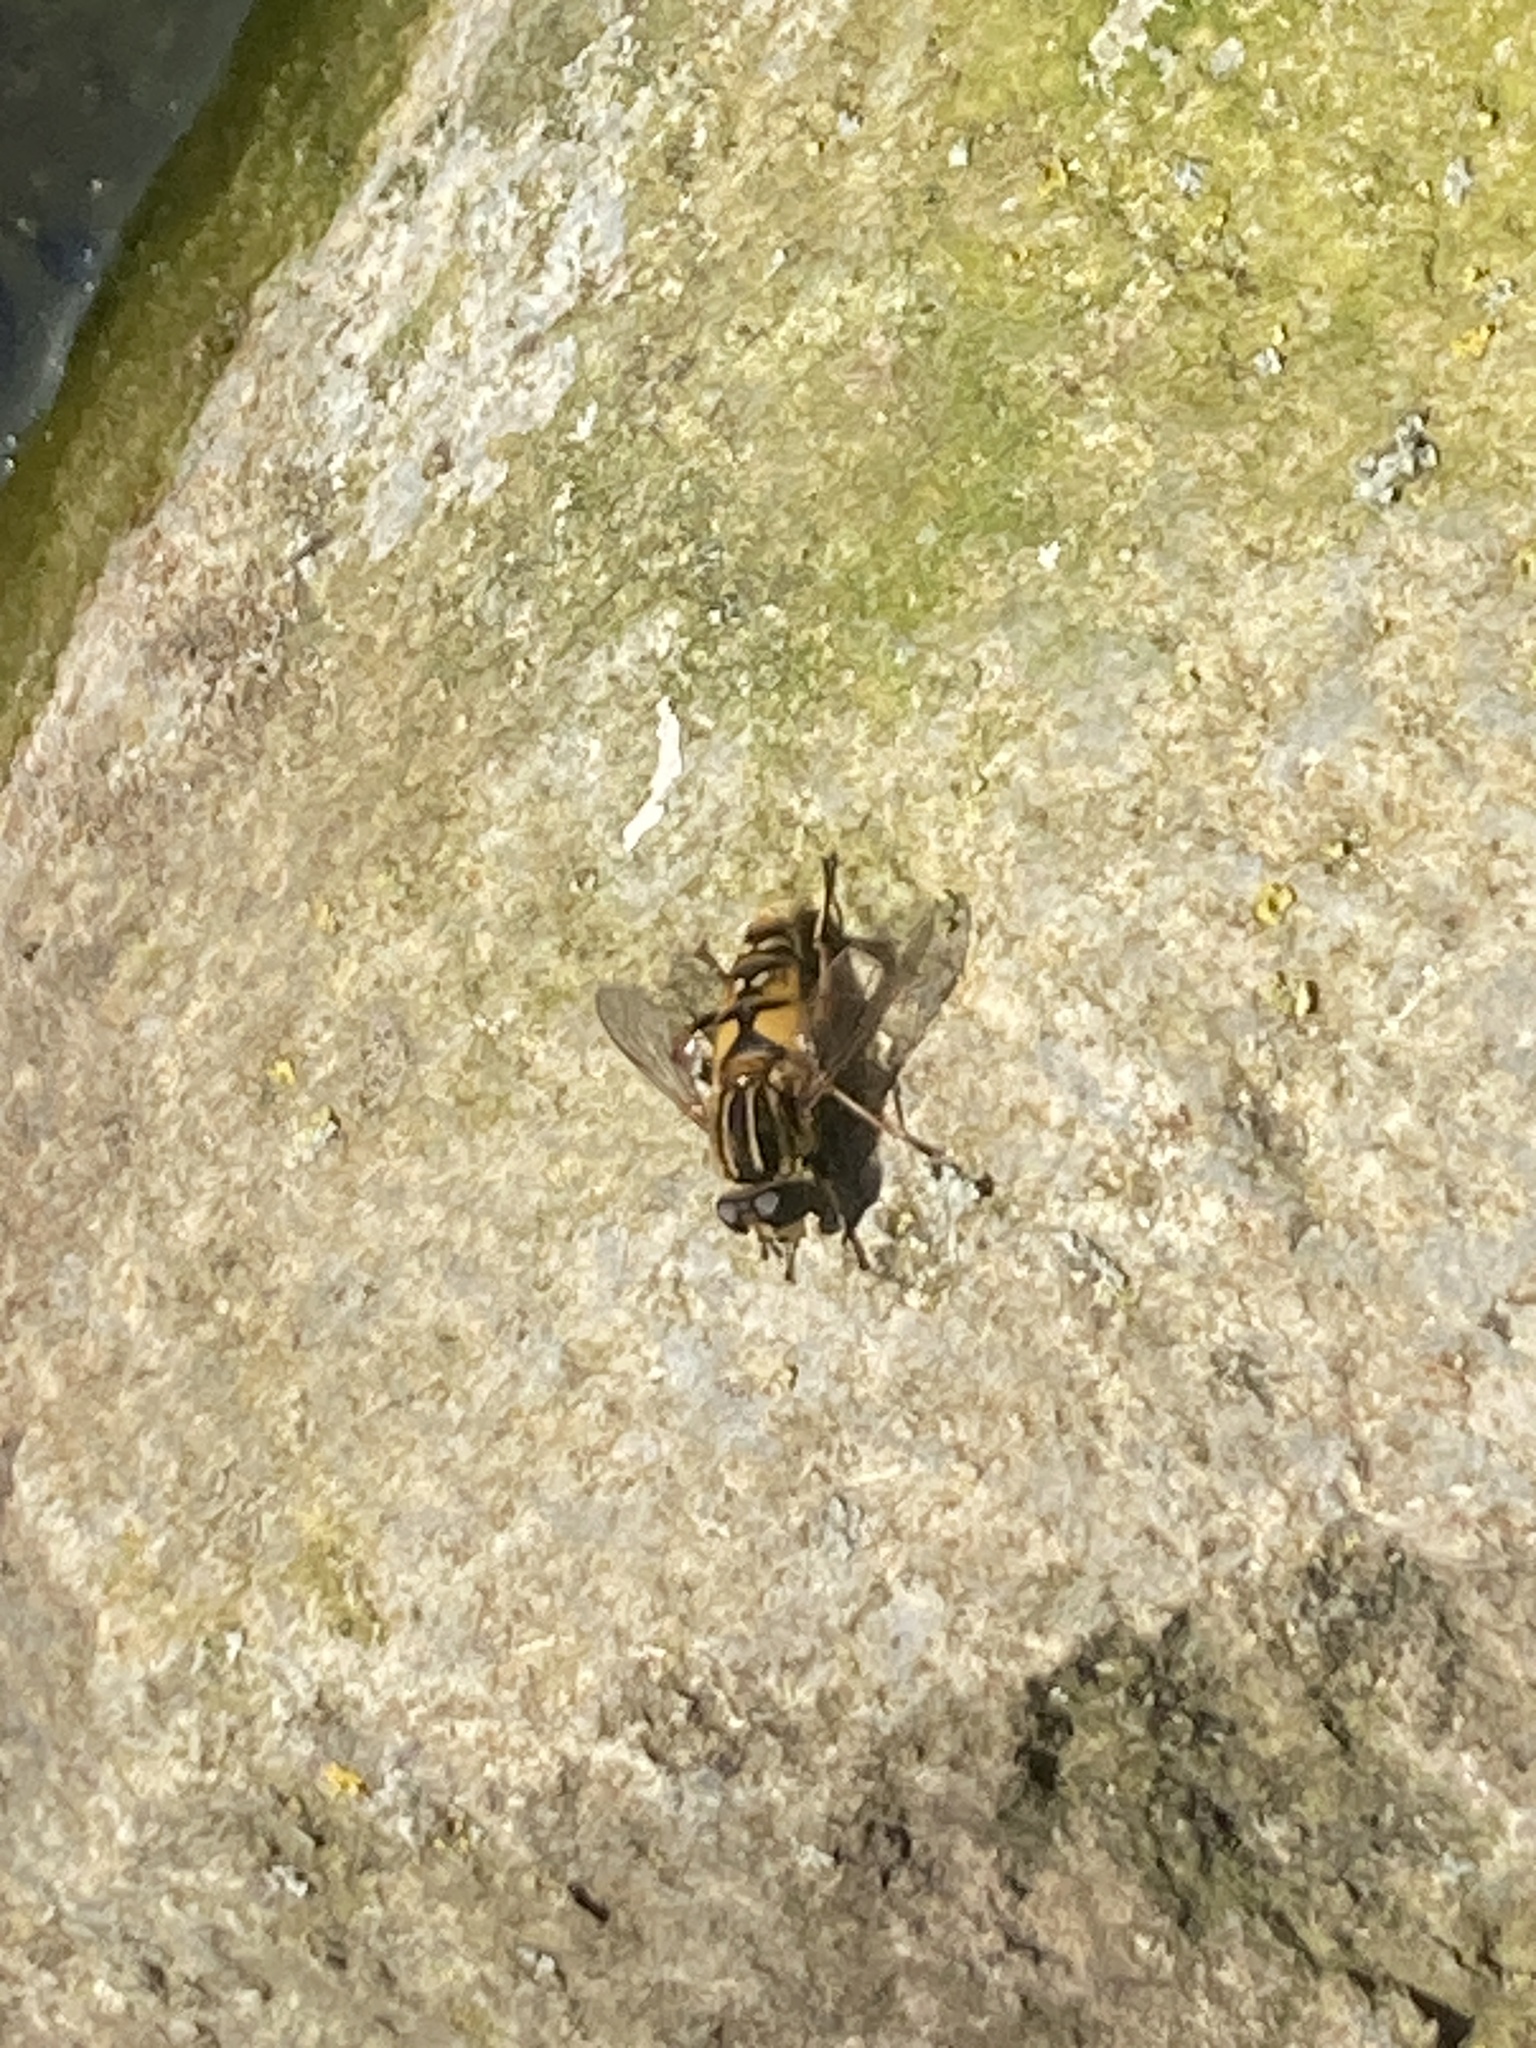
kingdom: Animalia
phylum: Arthropoda
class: Insecta
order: Diptera
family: Syrphidae
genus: Helophilus
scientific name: Helophilus pendulus
